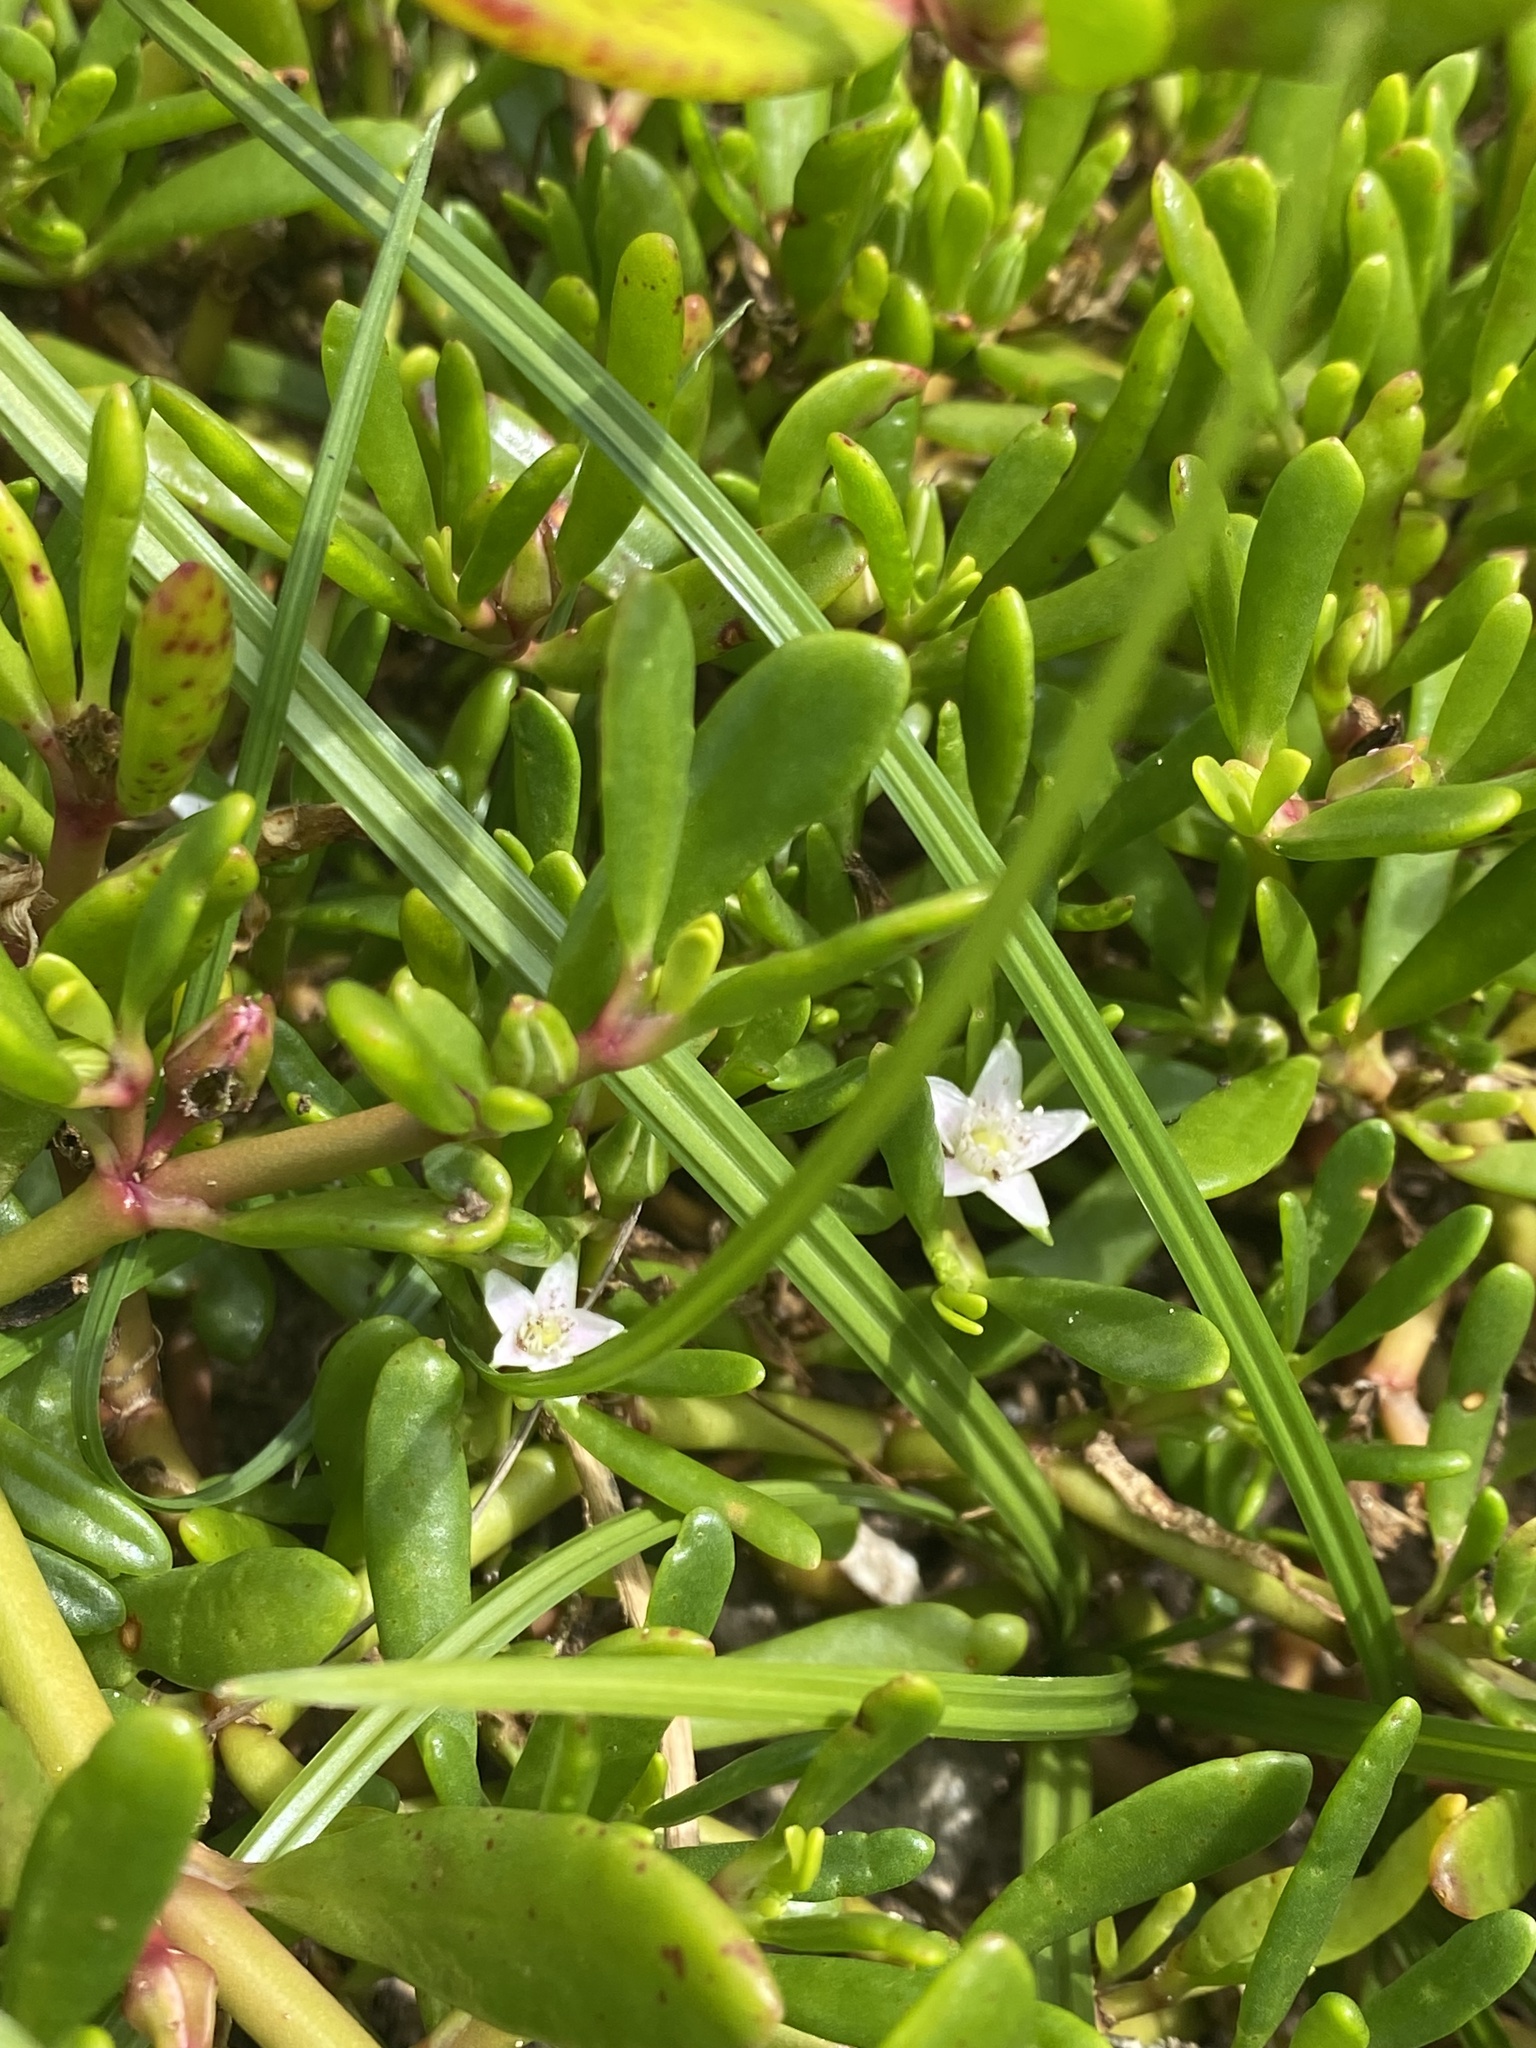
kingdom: Plantae
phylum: Tracheophyta
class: Magnoliopsida
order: Caryophyllales
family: Aizoaceae
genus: Sesuvium
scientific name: Sesuvium portulacastrum
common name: Sea-purslane
